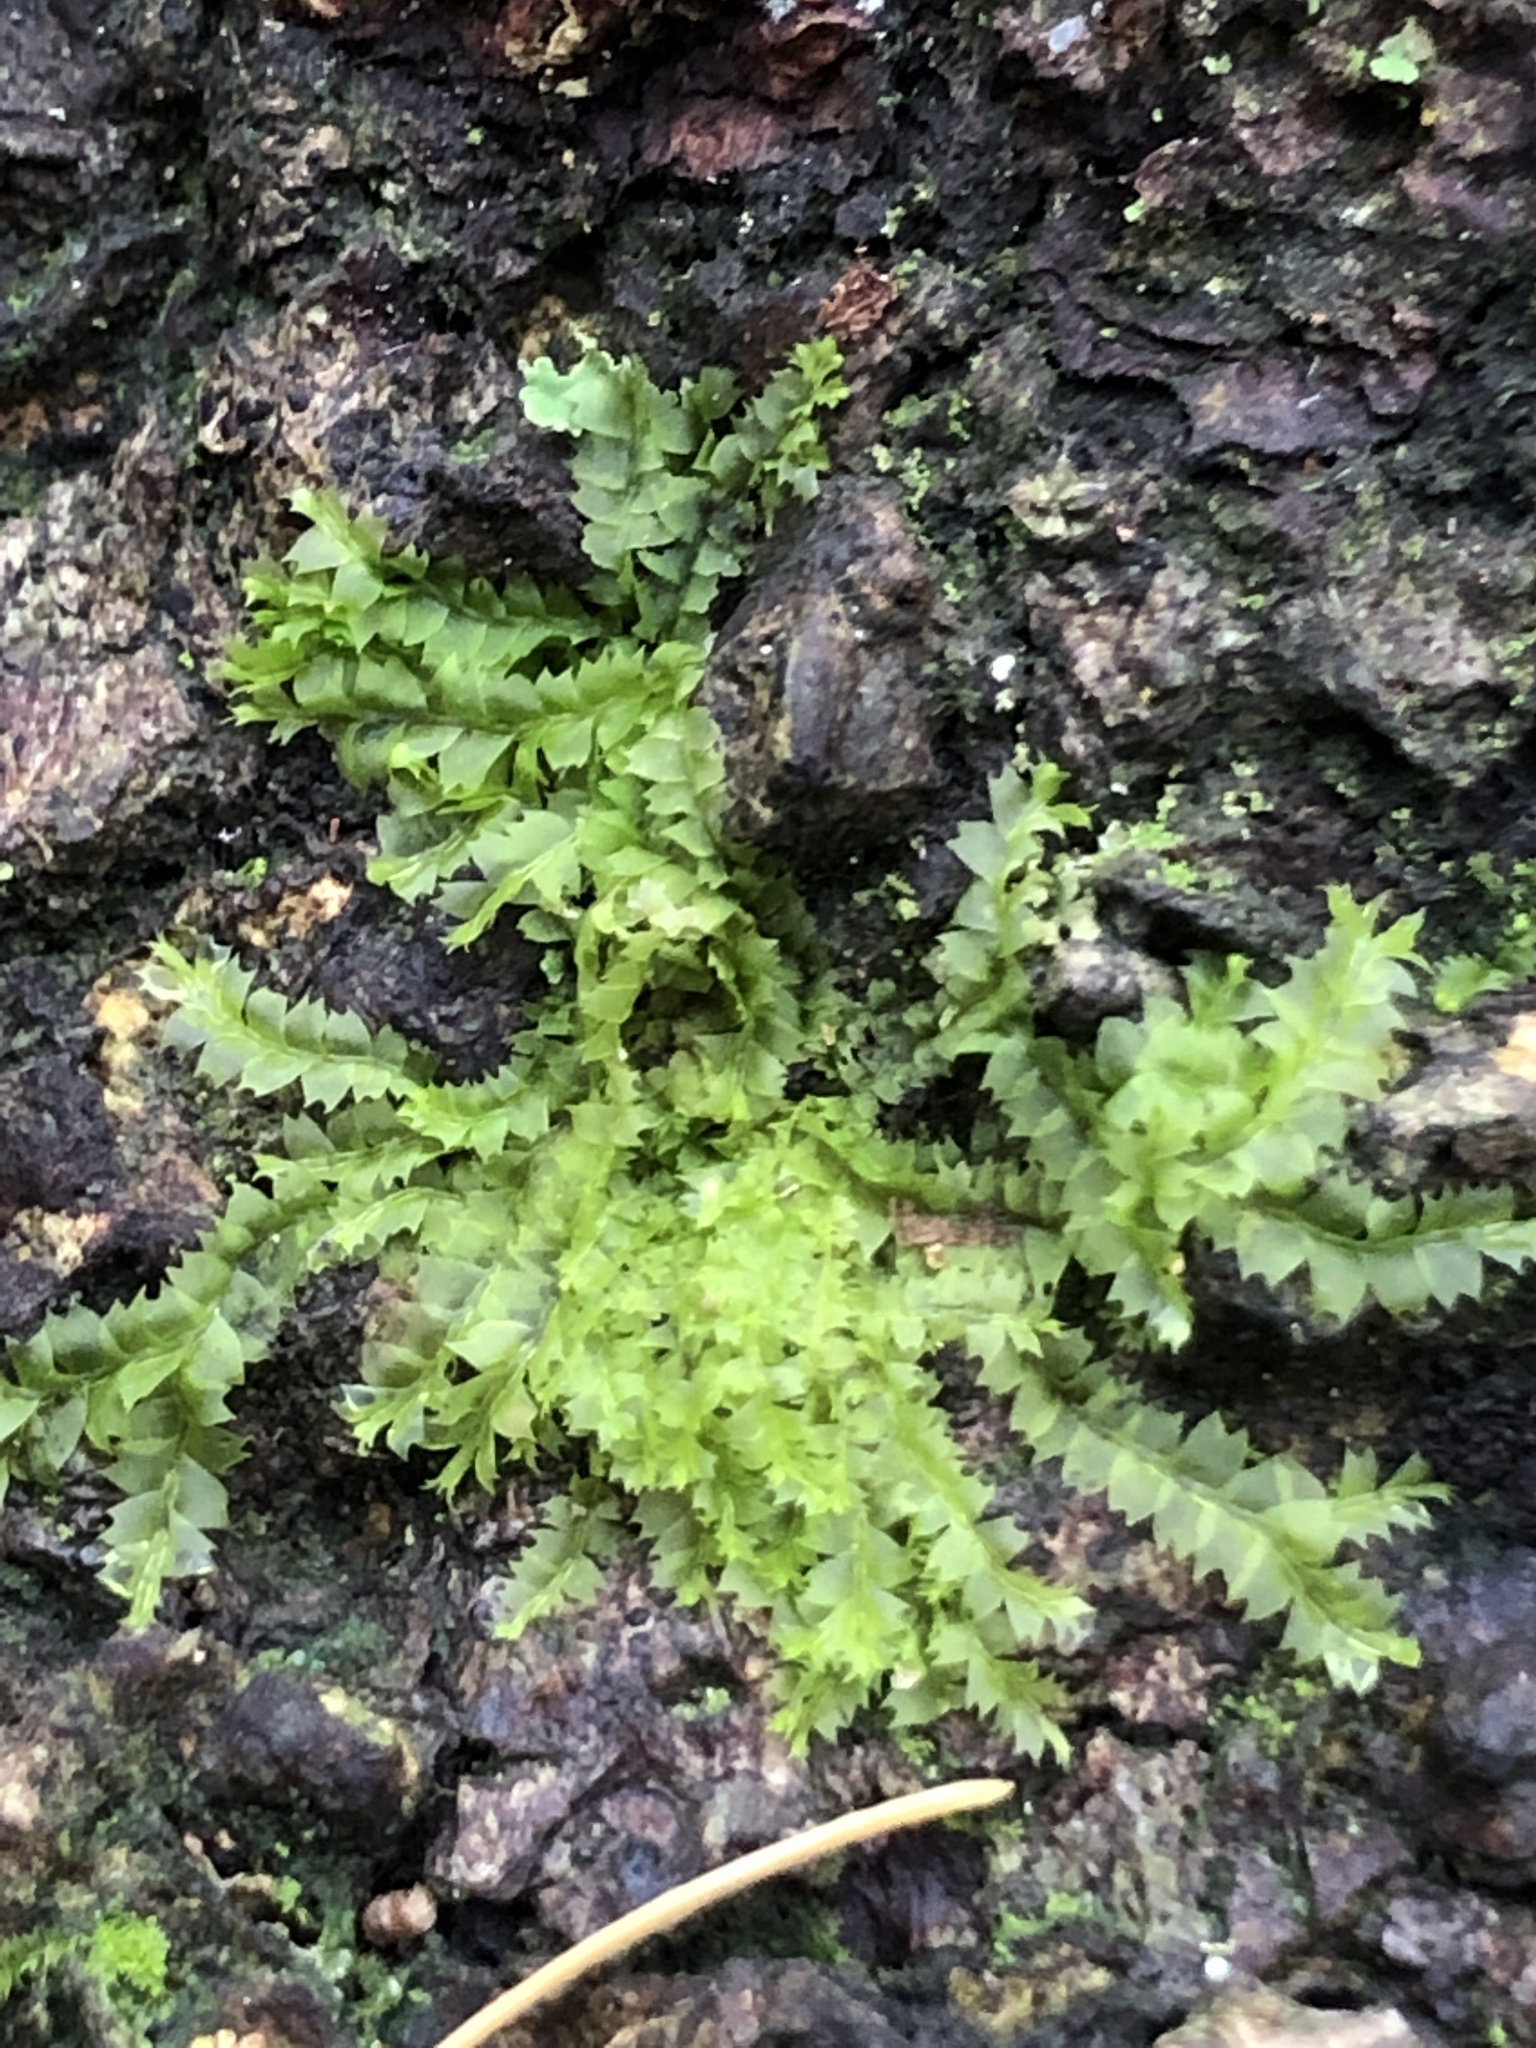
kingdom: Plantae
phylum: Marchantiophyta
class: Jungermanniopsida
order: Jungermanniales
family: Lophocoleaceae
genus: Lophocolea
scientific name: Lophocolea bidentata
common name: Bifid crestwort
